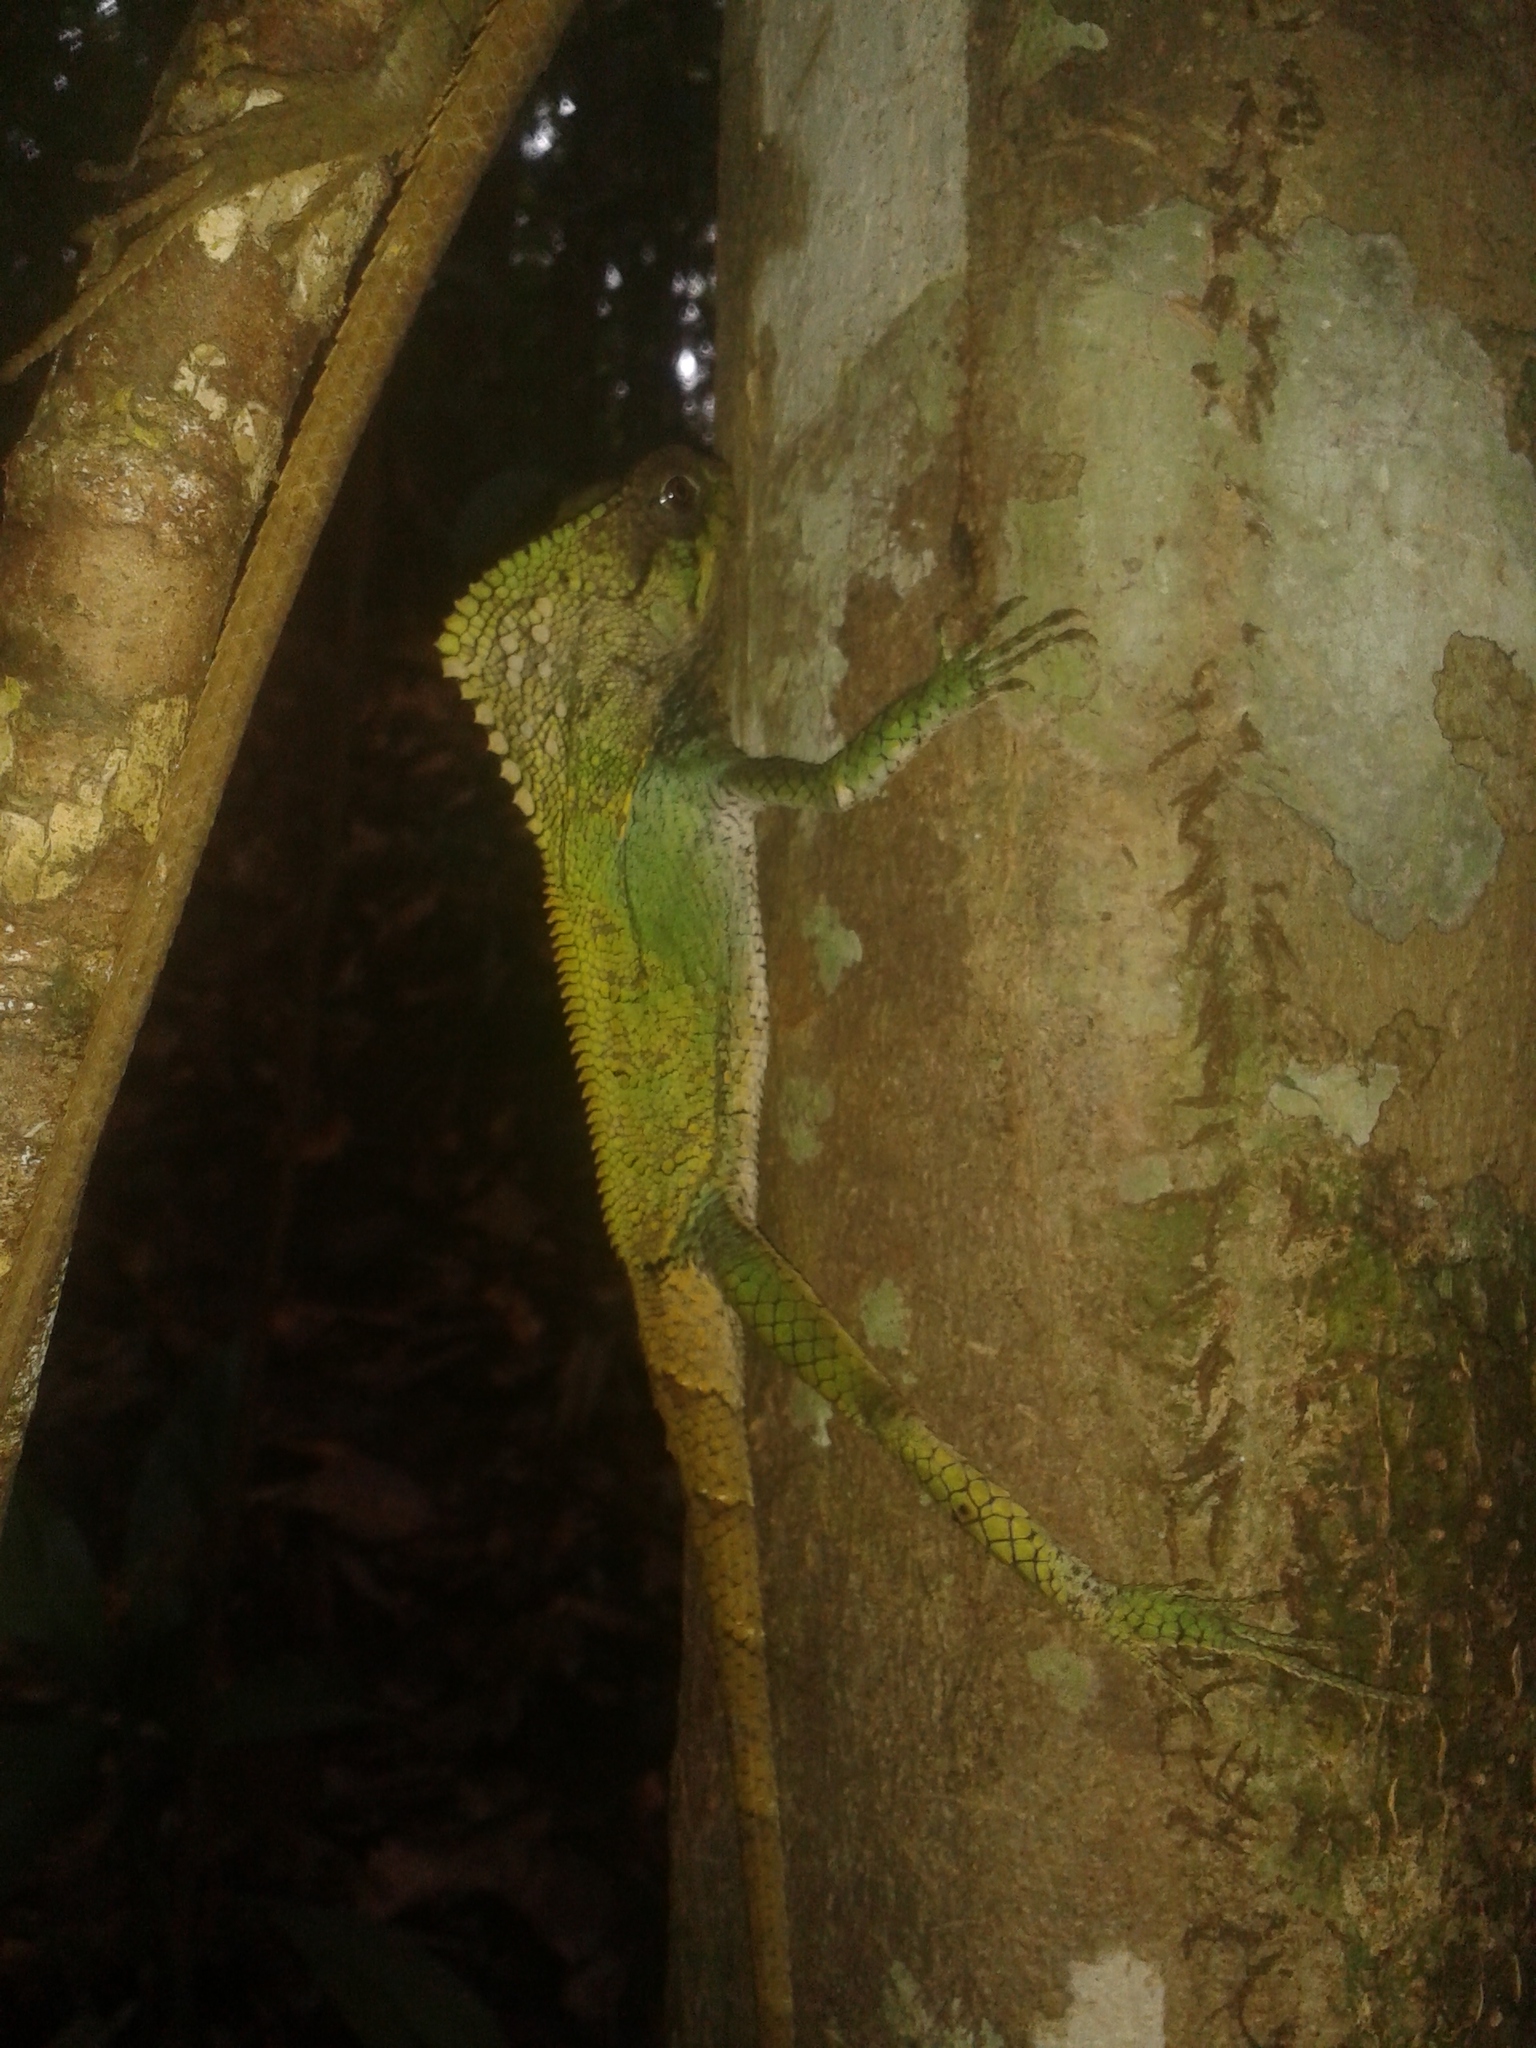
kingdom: Animalia
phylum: Chordata
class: Squamata
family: Corytophanidae
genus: Corytophanes
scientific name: Corytophanes cristatus
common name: Smooth helmeted iguana
